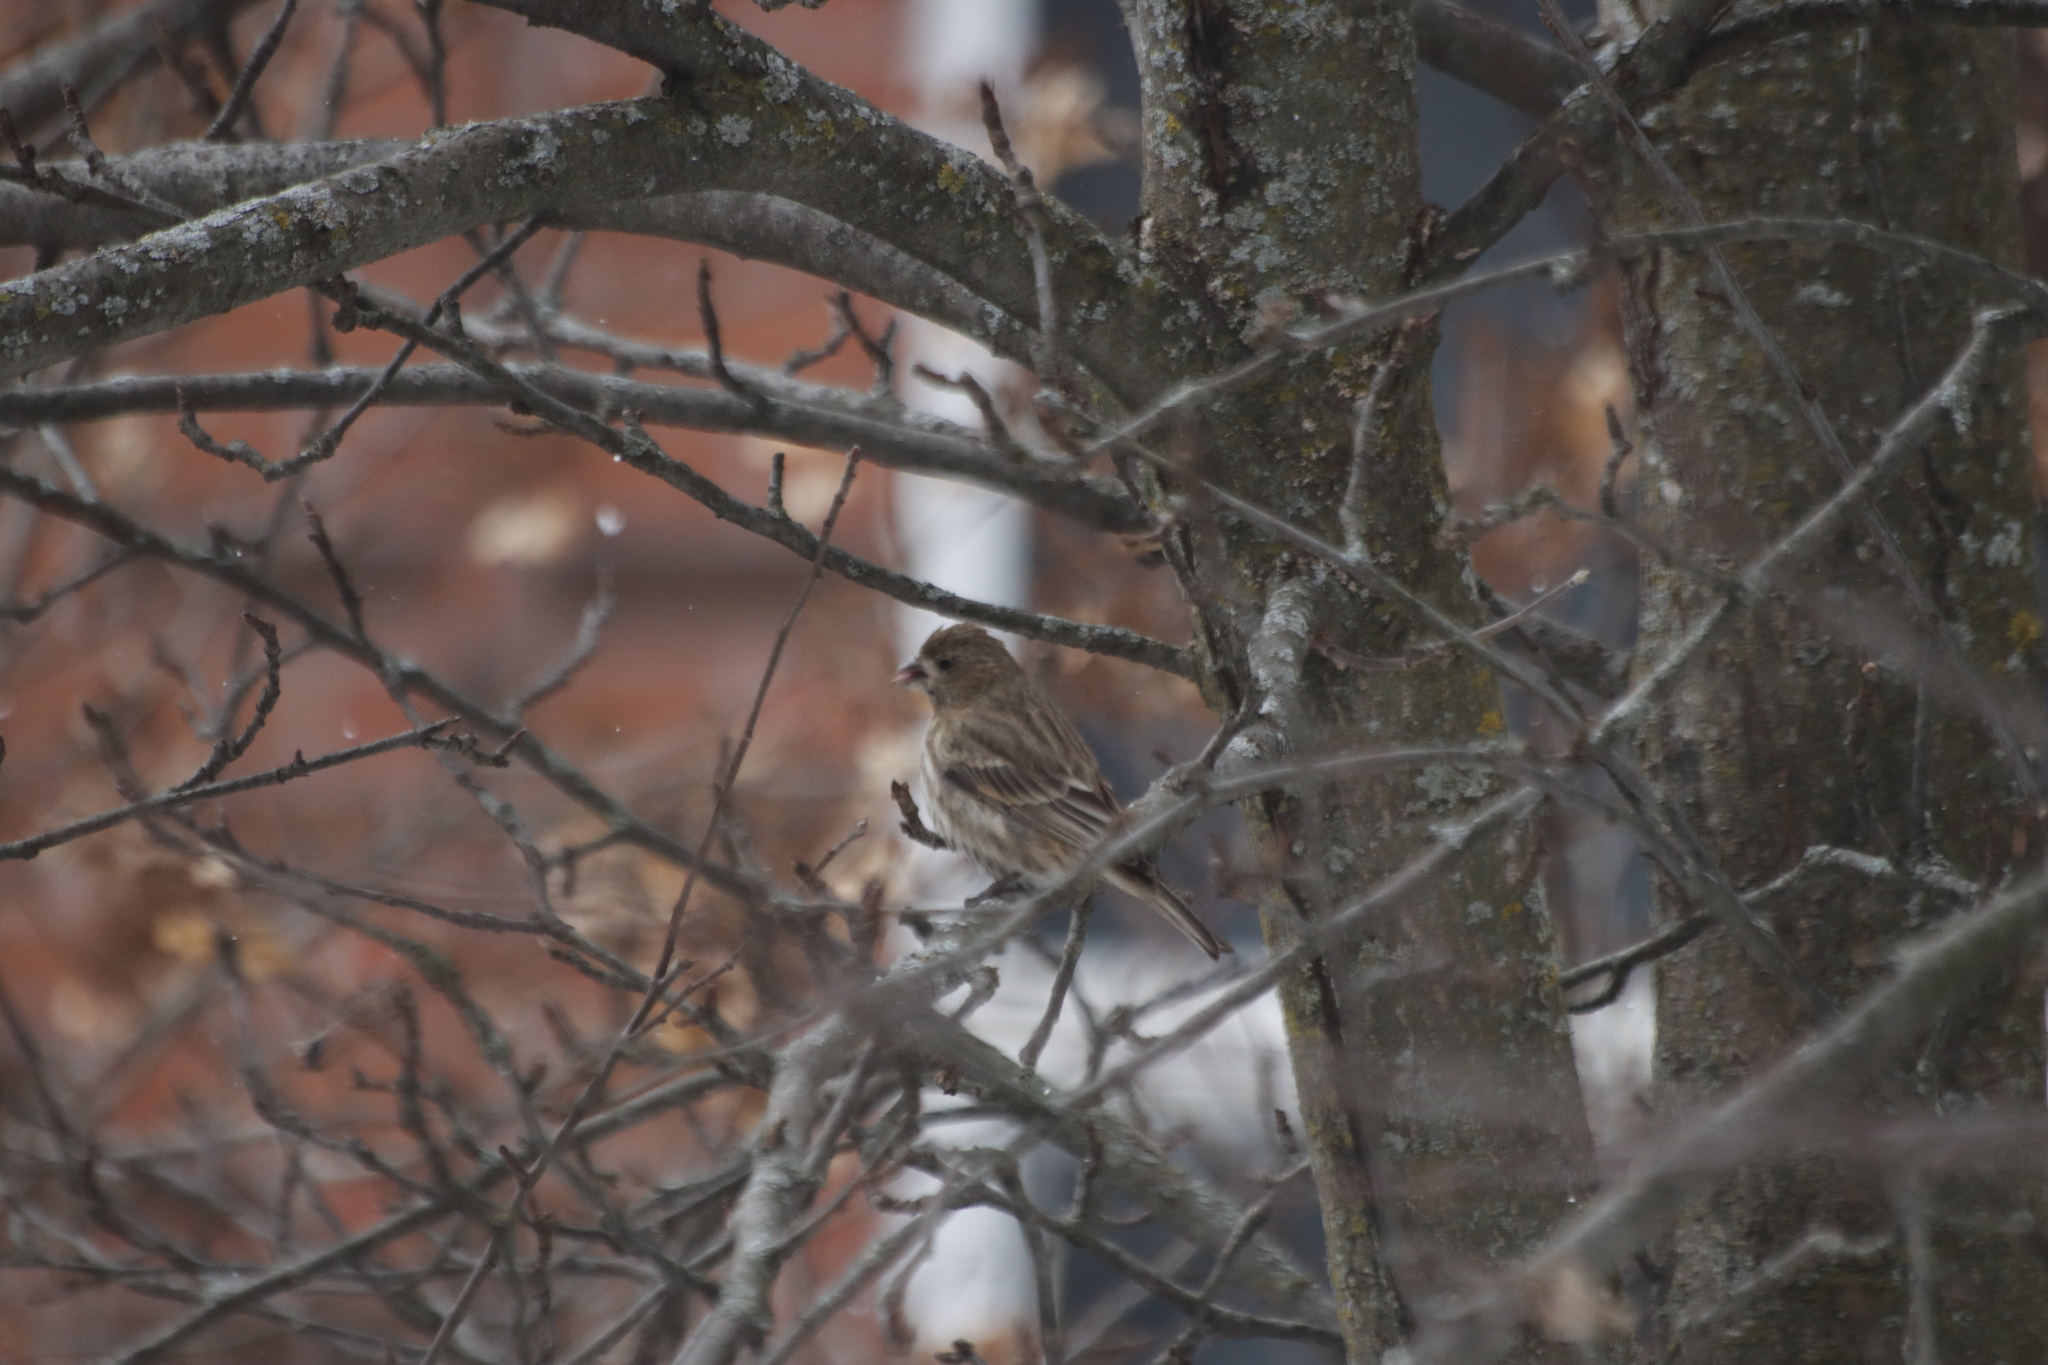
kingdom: Animalia
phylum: Chordata
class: Aves
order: Passeriformes
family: Fringillidae
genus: Haemorhous
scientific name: Haemorhous mexicanus
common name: House finch
